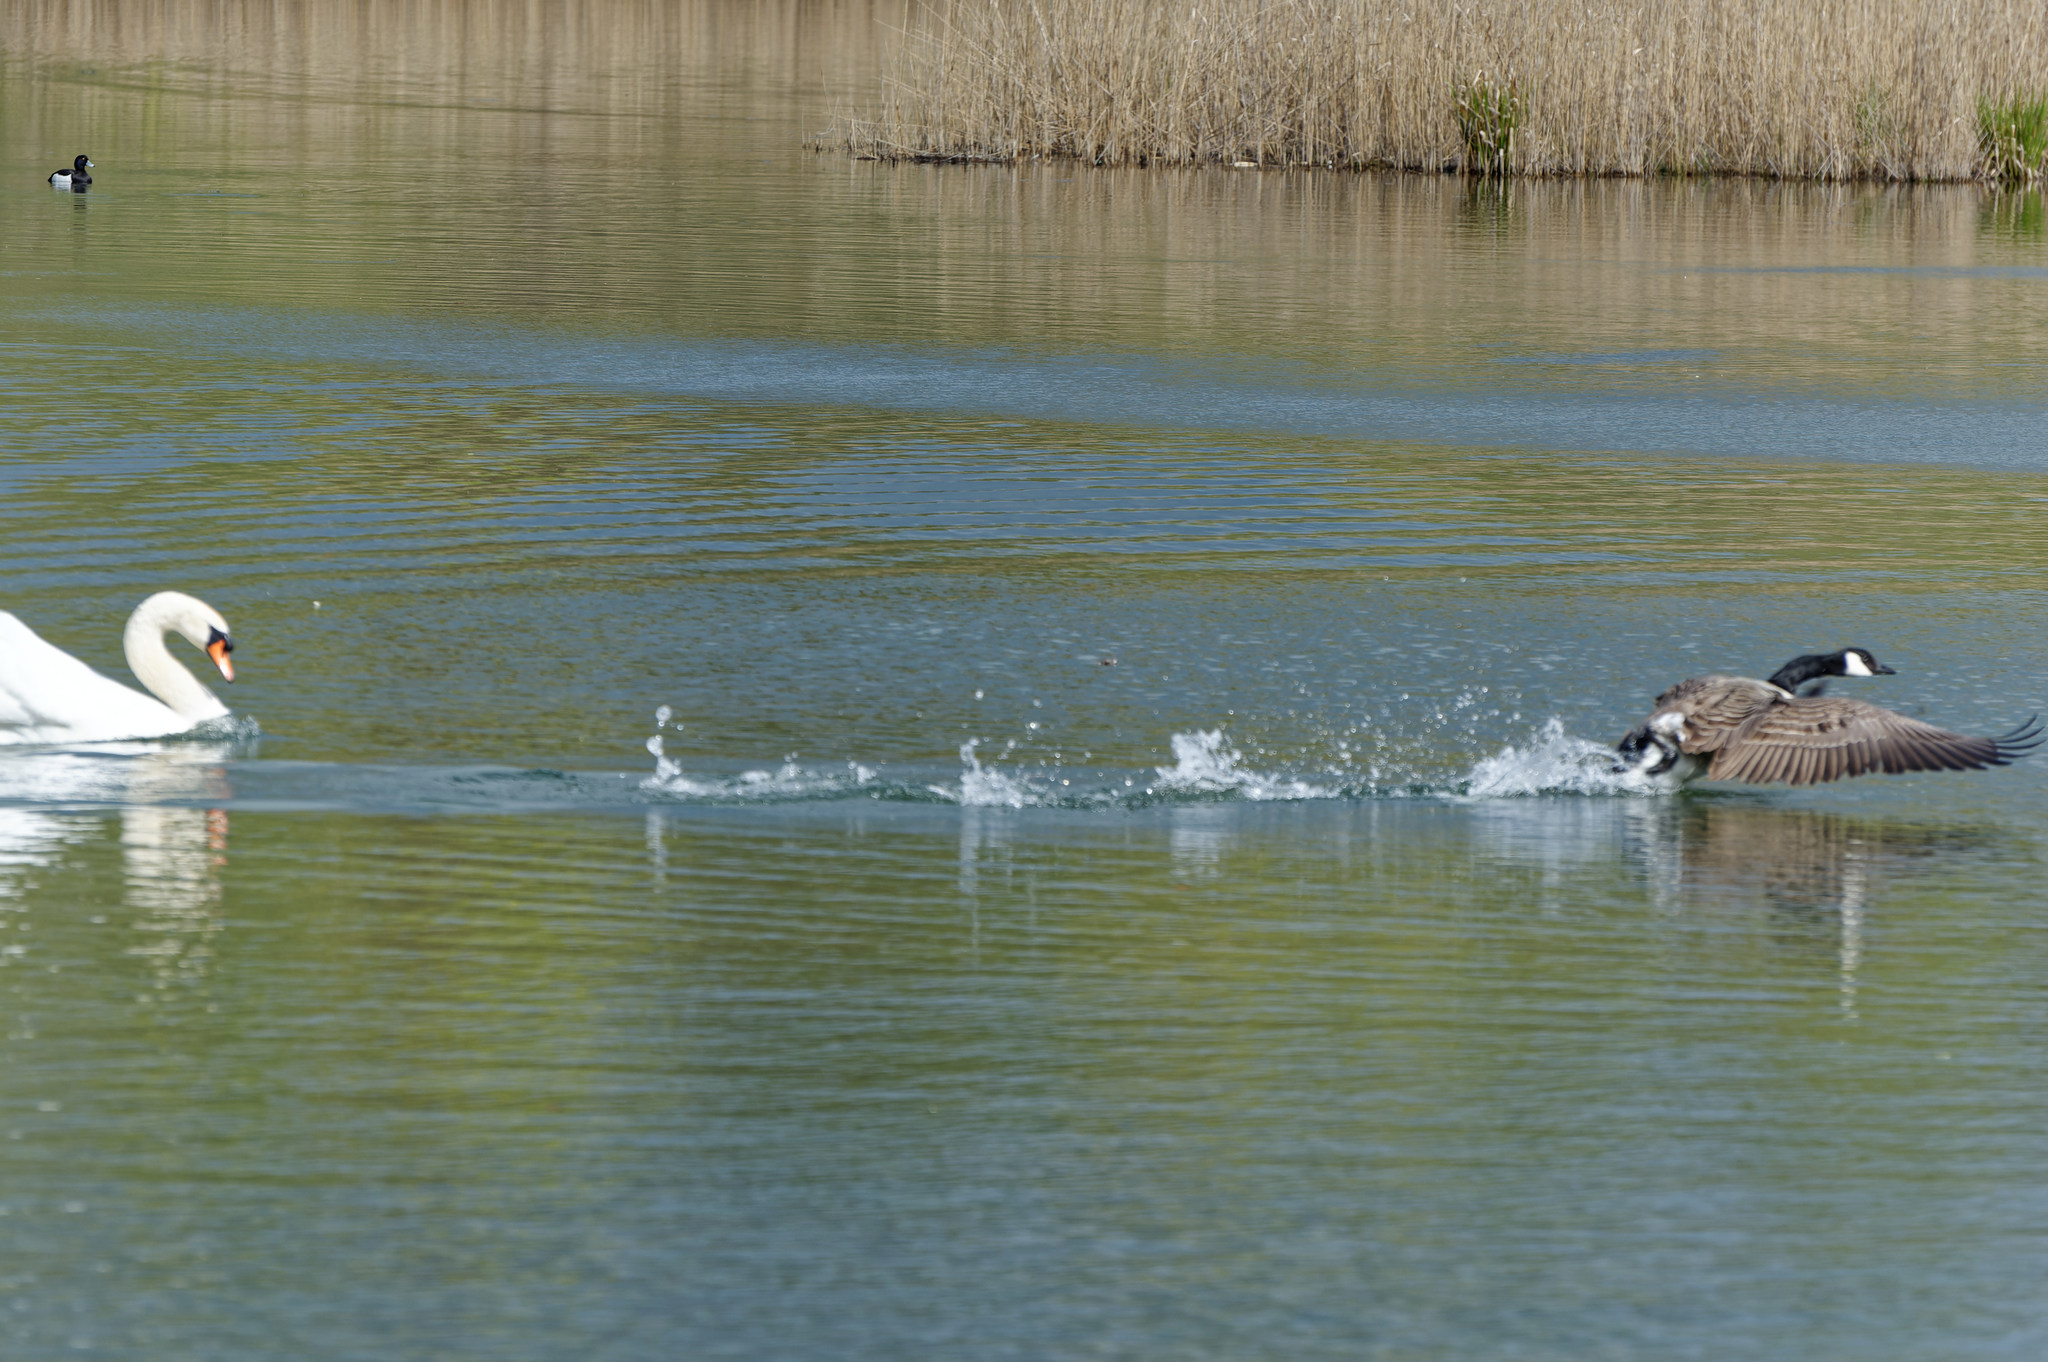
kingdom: Animalia
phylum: Chordata
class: Aves
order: Anseriformes
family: Anatidae
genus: Branta
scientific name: Branta canadensis
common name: Canada goose
